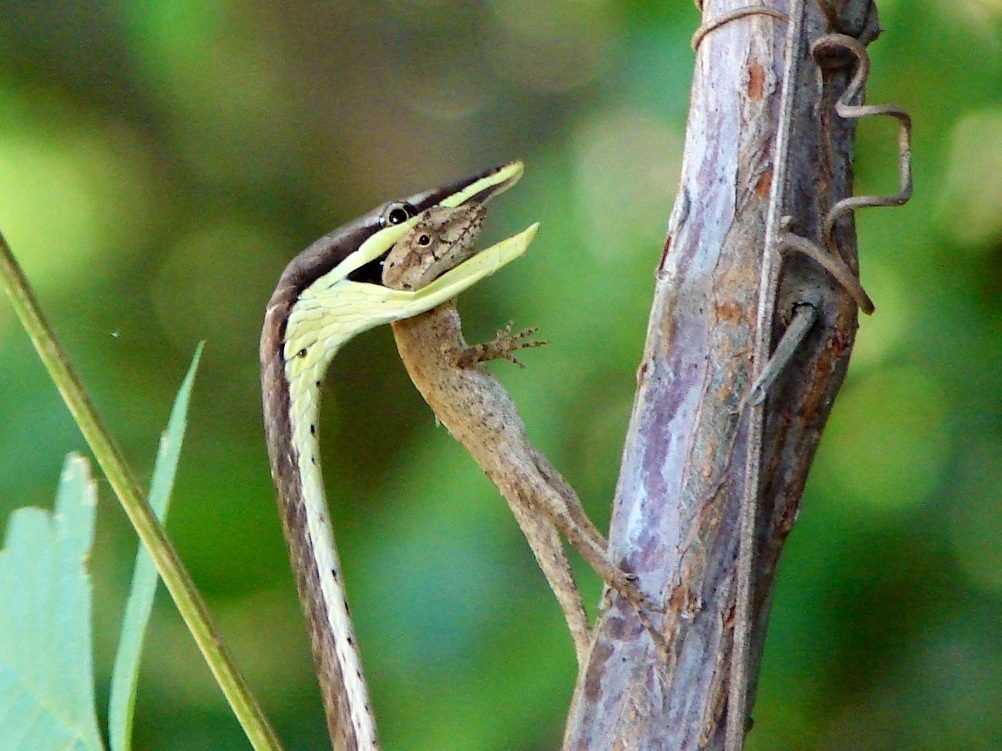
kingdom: Animalia
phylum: Chordata
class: Squamata
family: Colubridae
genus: Oxybelis
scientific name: Oxybelis microphthalmus
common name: Thrornscrub vine snake
